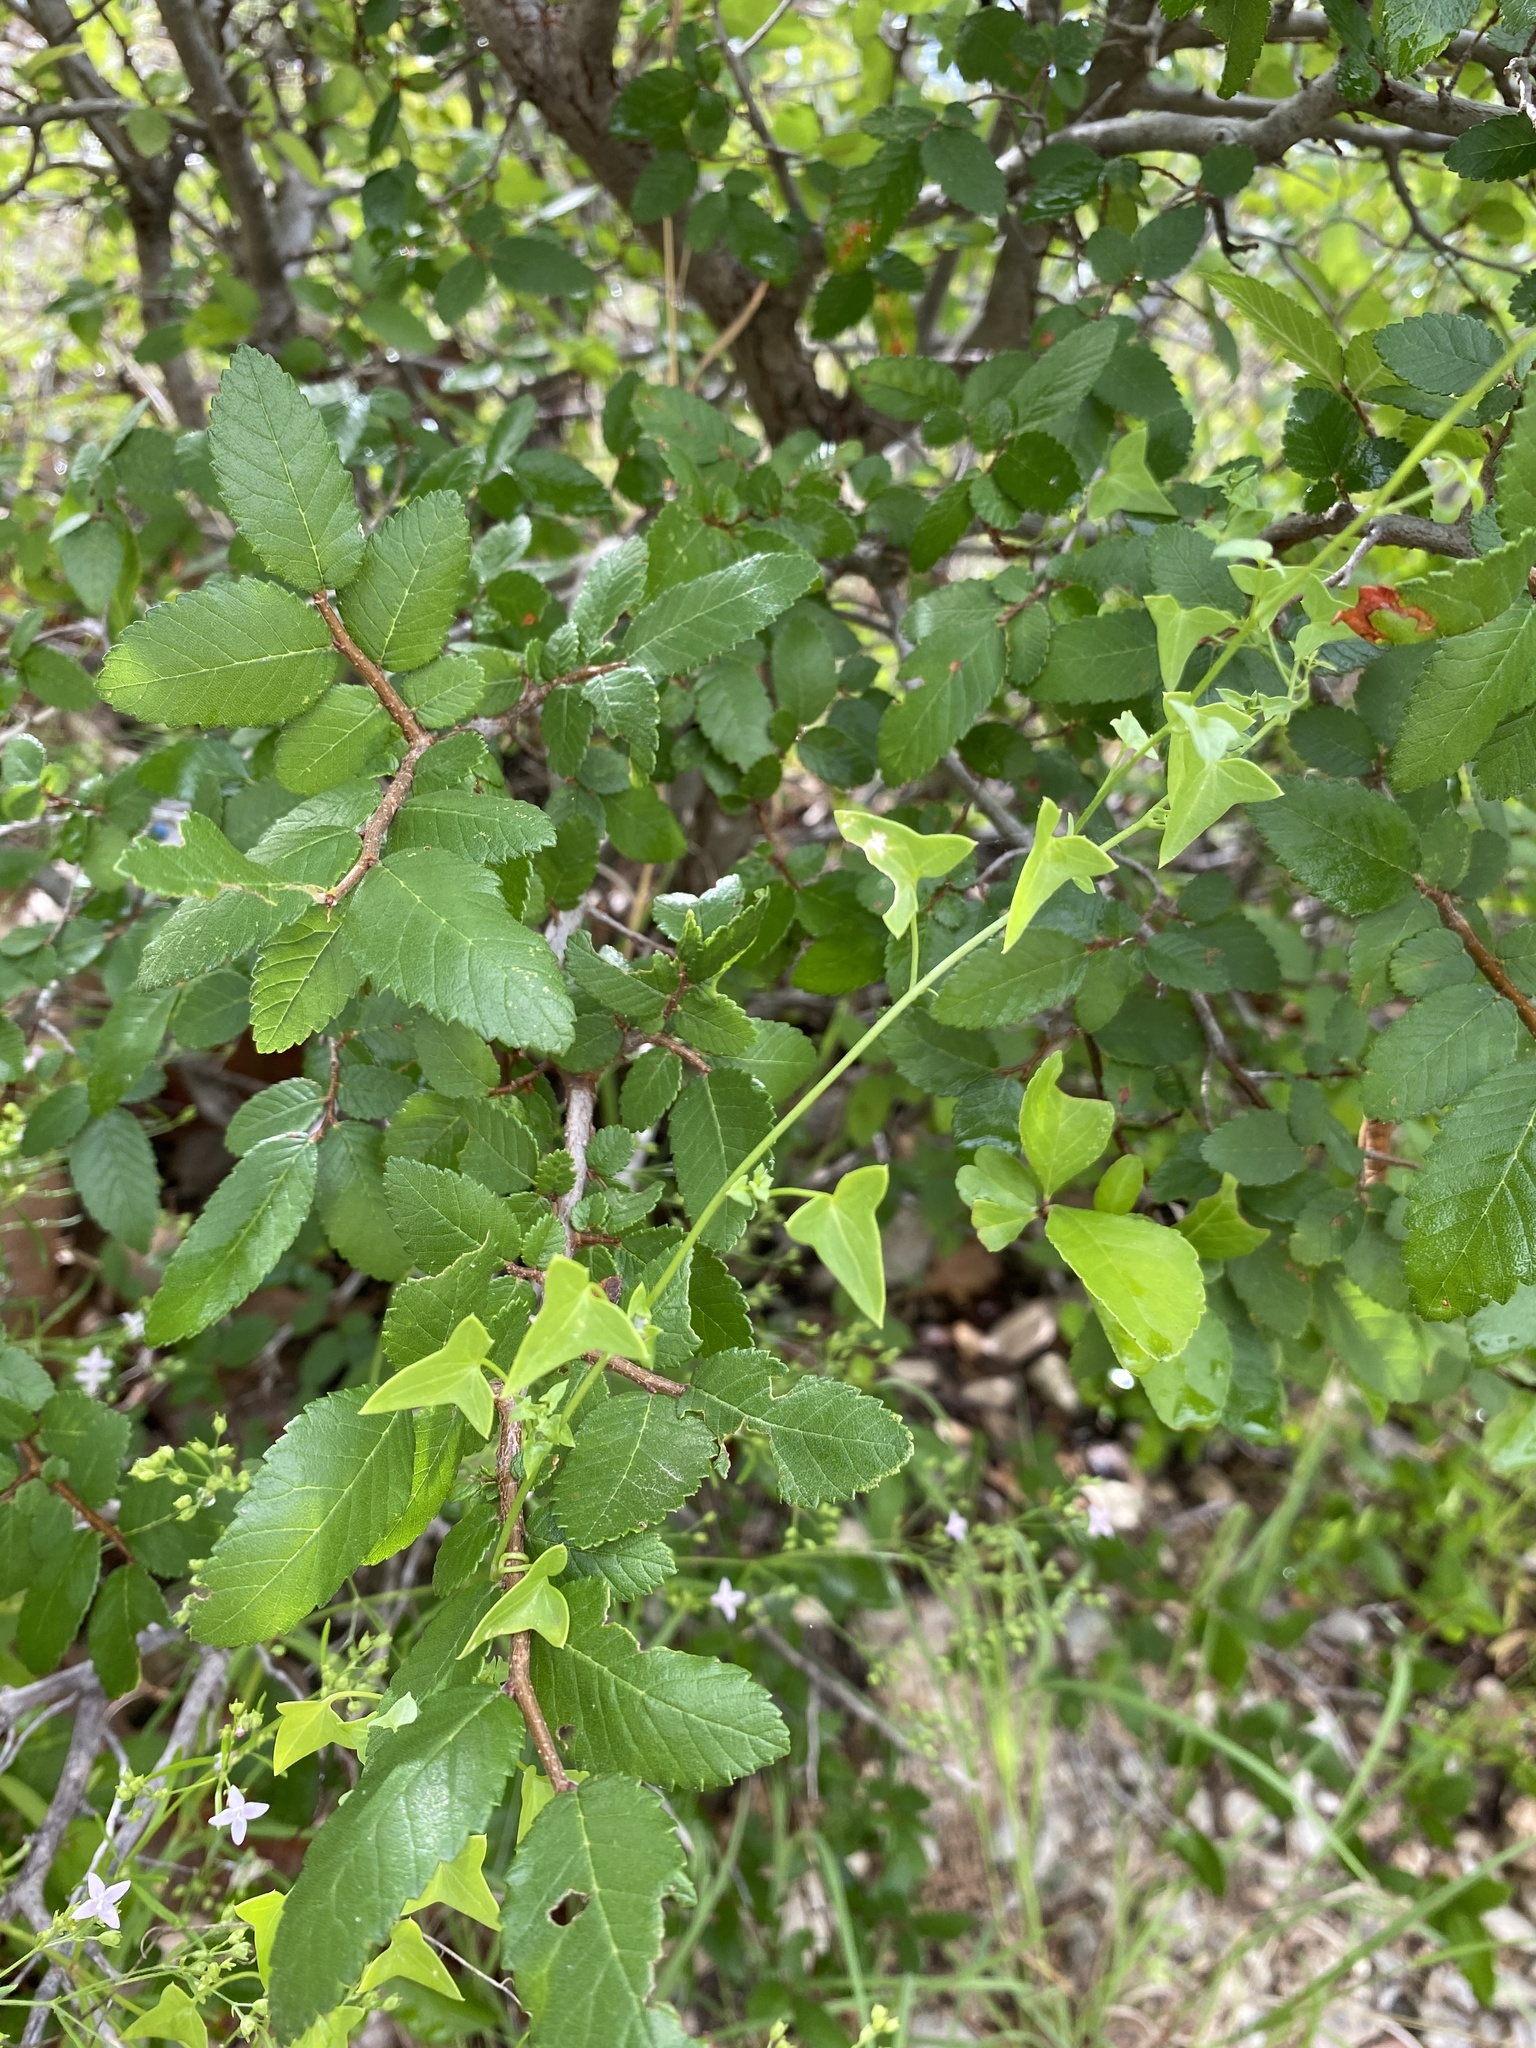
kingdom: Plantae
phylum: Tracheophyta
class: Magnoliopsida
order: Lamiales
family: Plantaginaceae
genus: Maurandella
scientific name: Maurandella antirrhiniflora
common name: Violet twining-snapdragon
